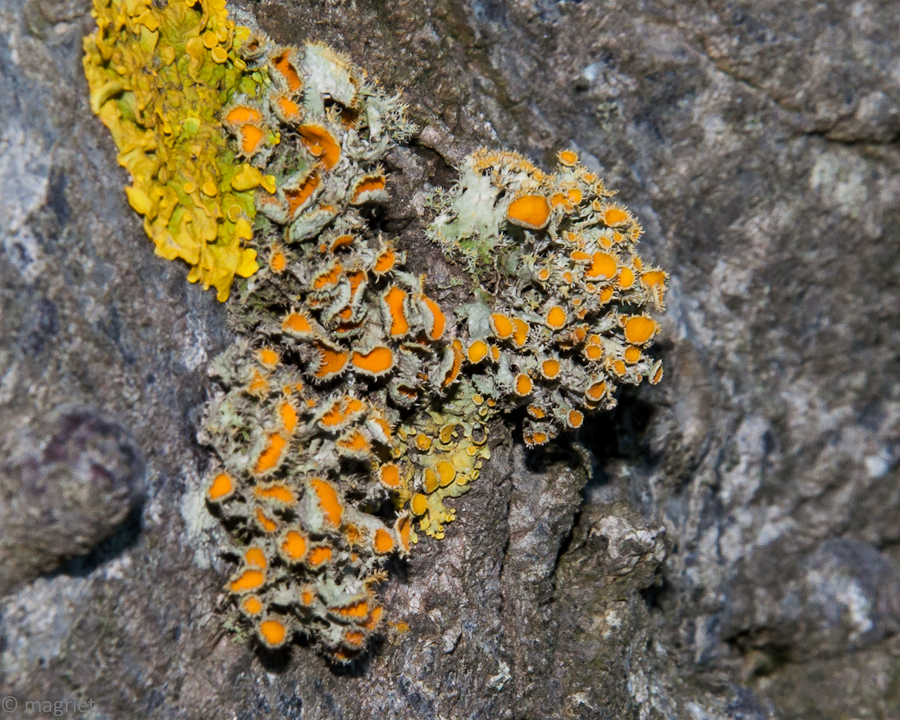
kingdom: Fungi
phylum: Ascomycota
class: Lecanoromycetes
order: Teloschistales
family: Teloschistaceae
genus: Niorma
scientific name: Niorma chrysophthalma
